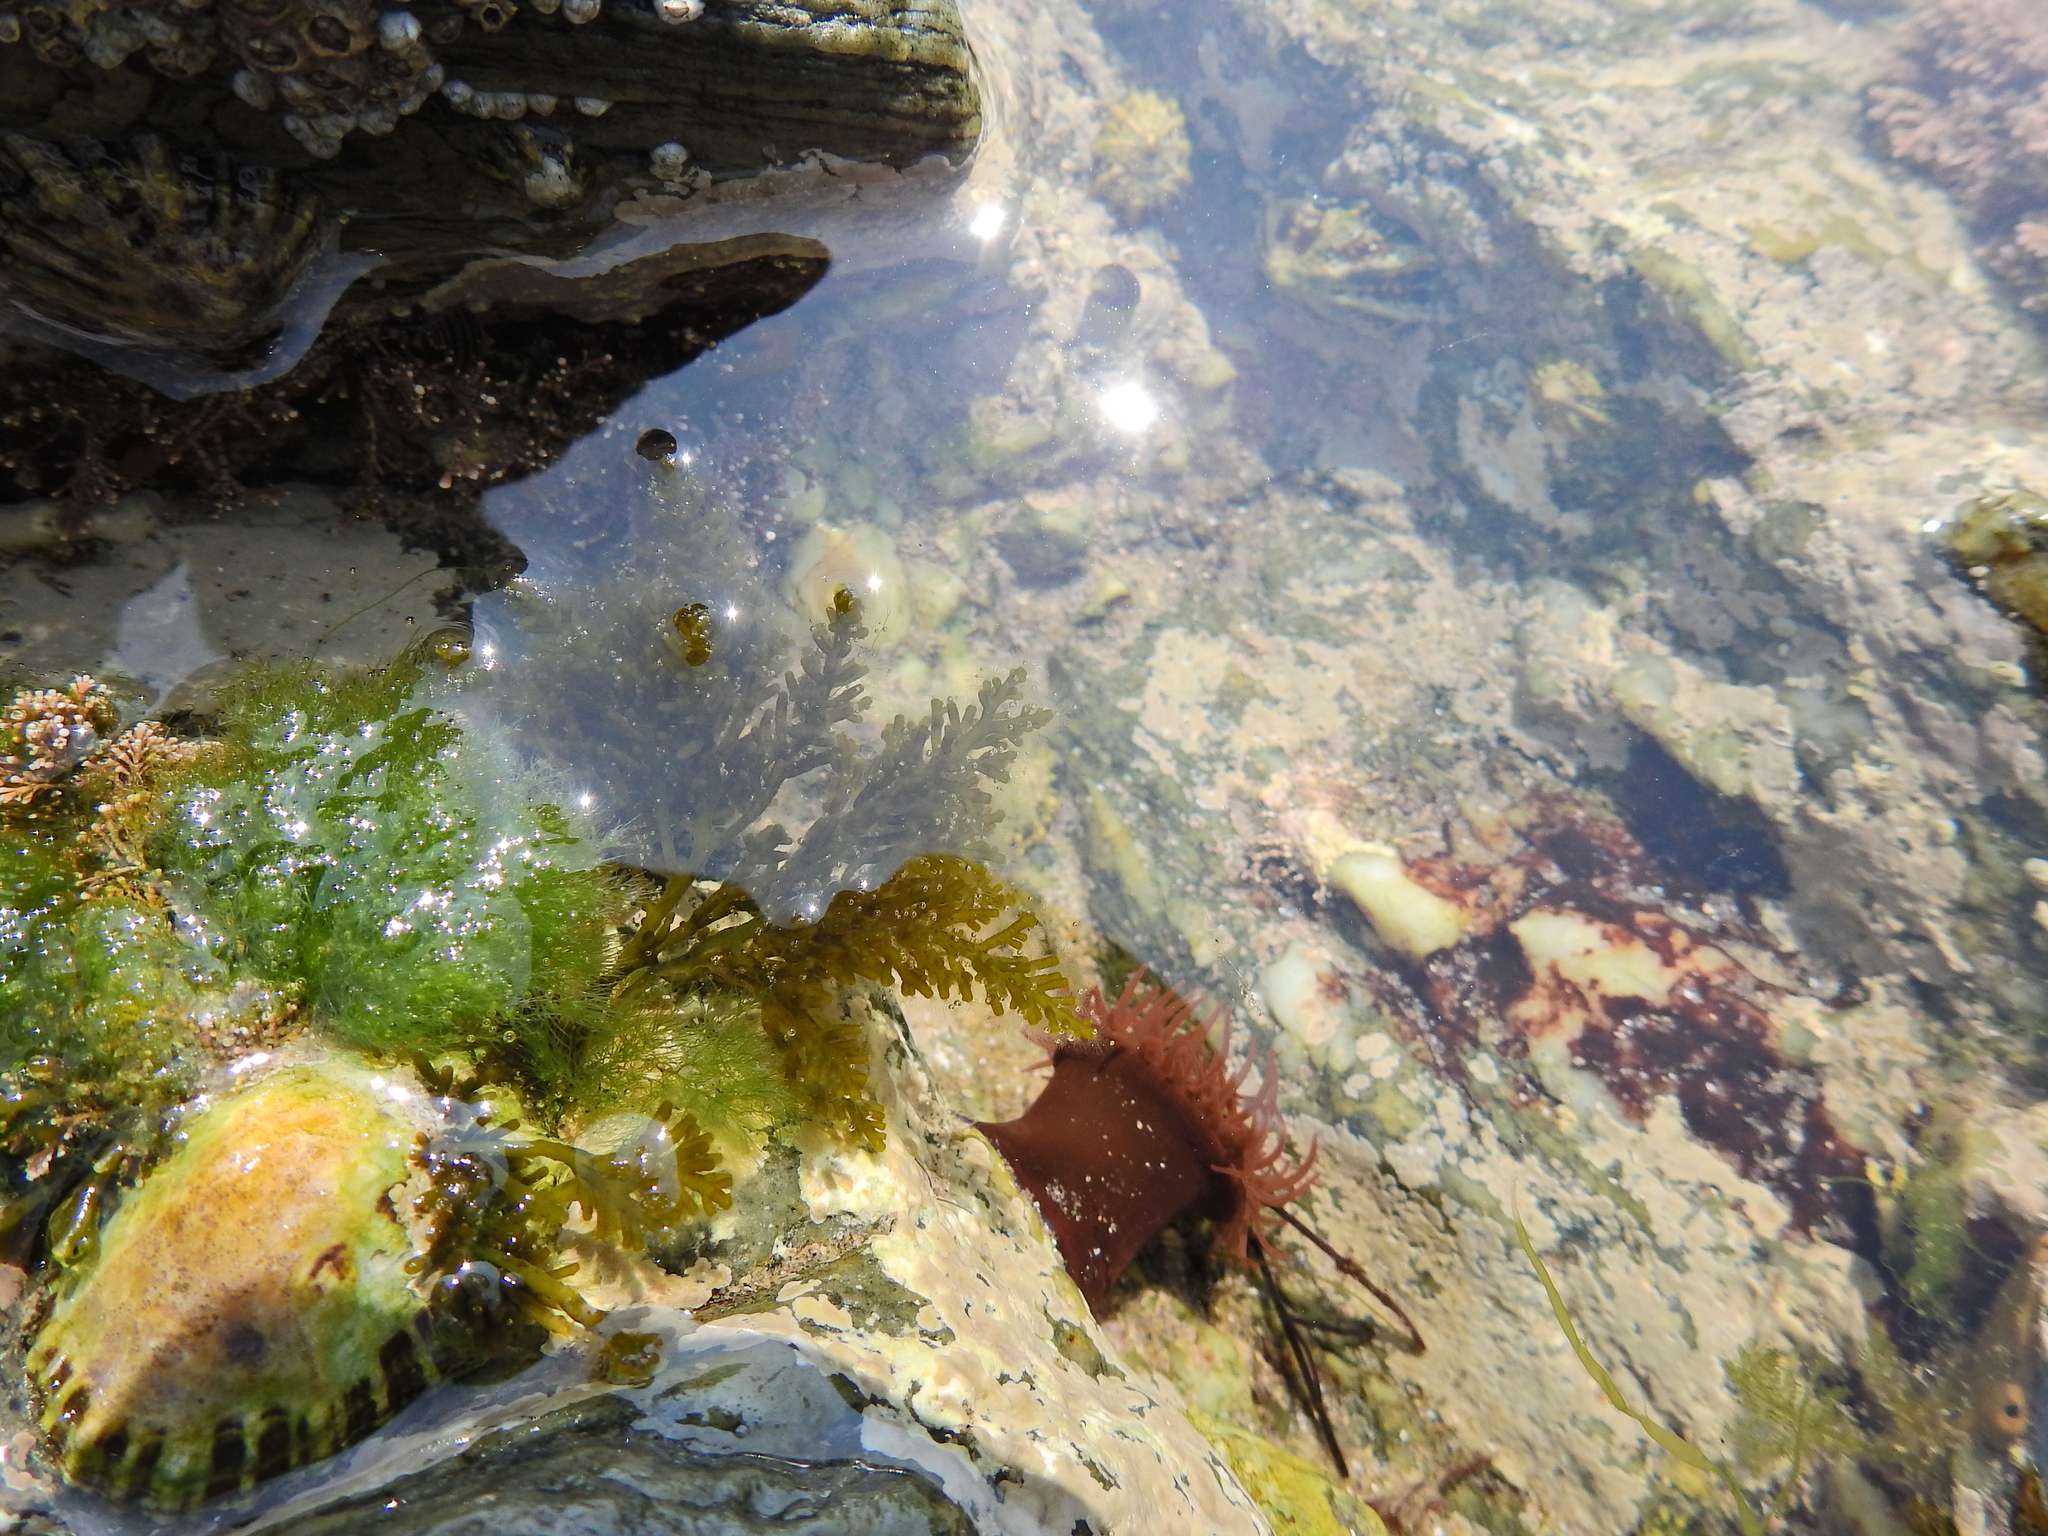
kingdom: Animalia
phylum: Cnidaria
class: Anthozoa
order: Actiniaria
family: Actiniidae
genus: Actinia
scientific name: Actinia equina
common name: Beadlet anemone
